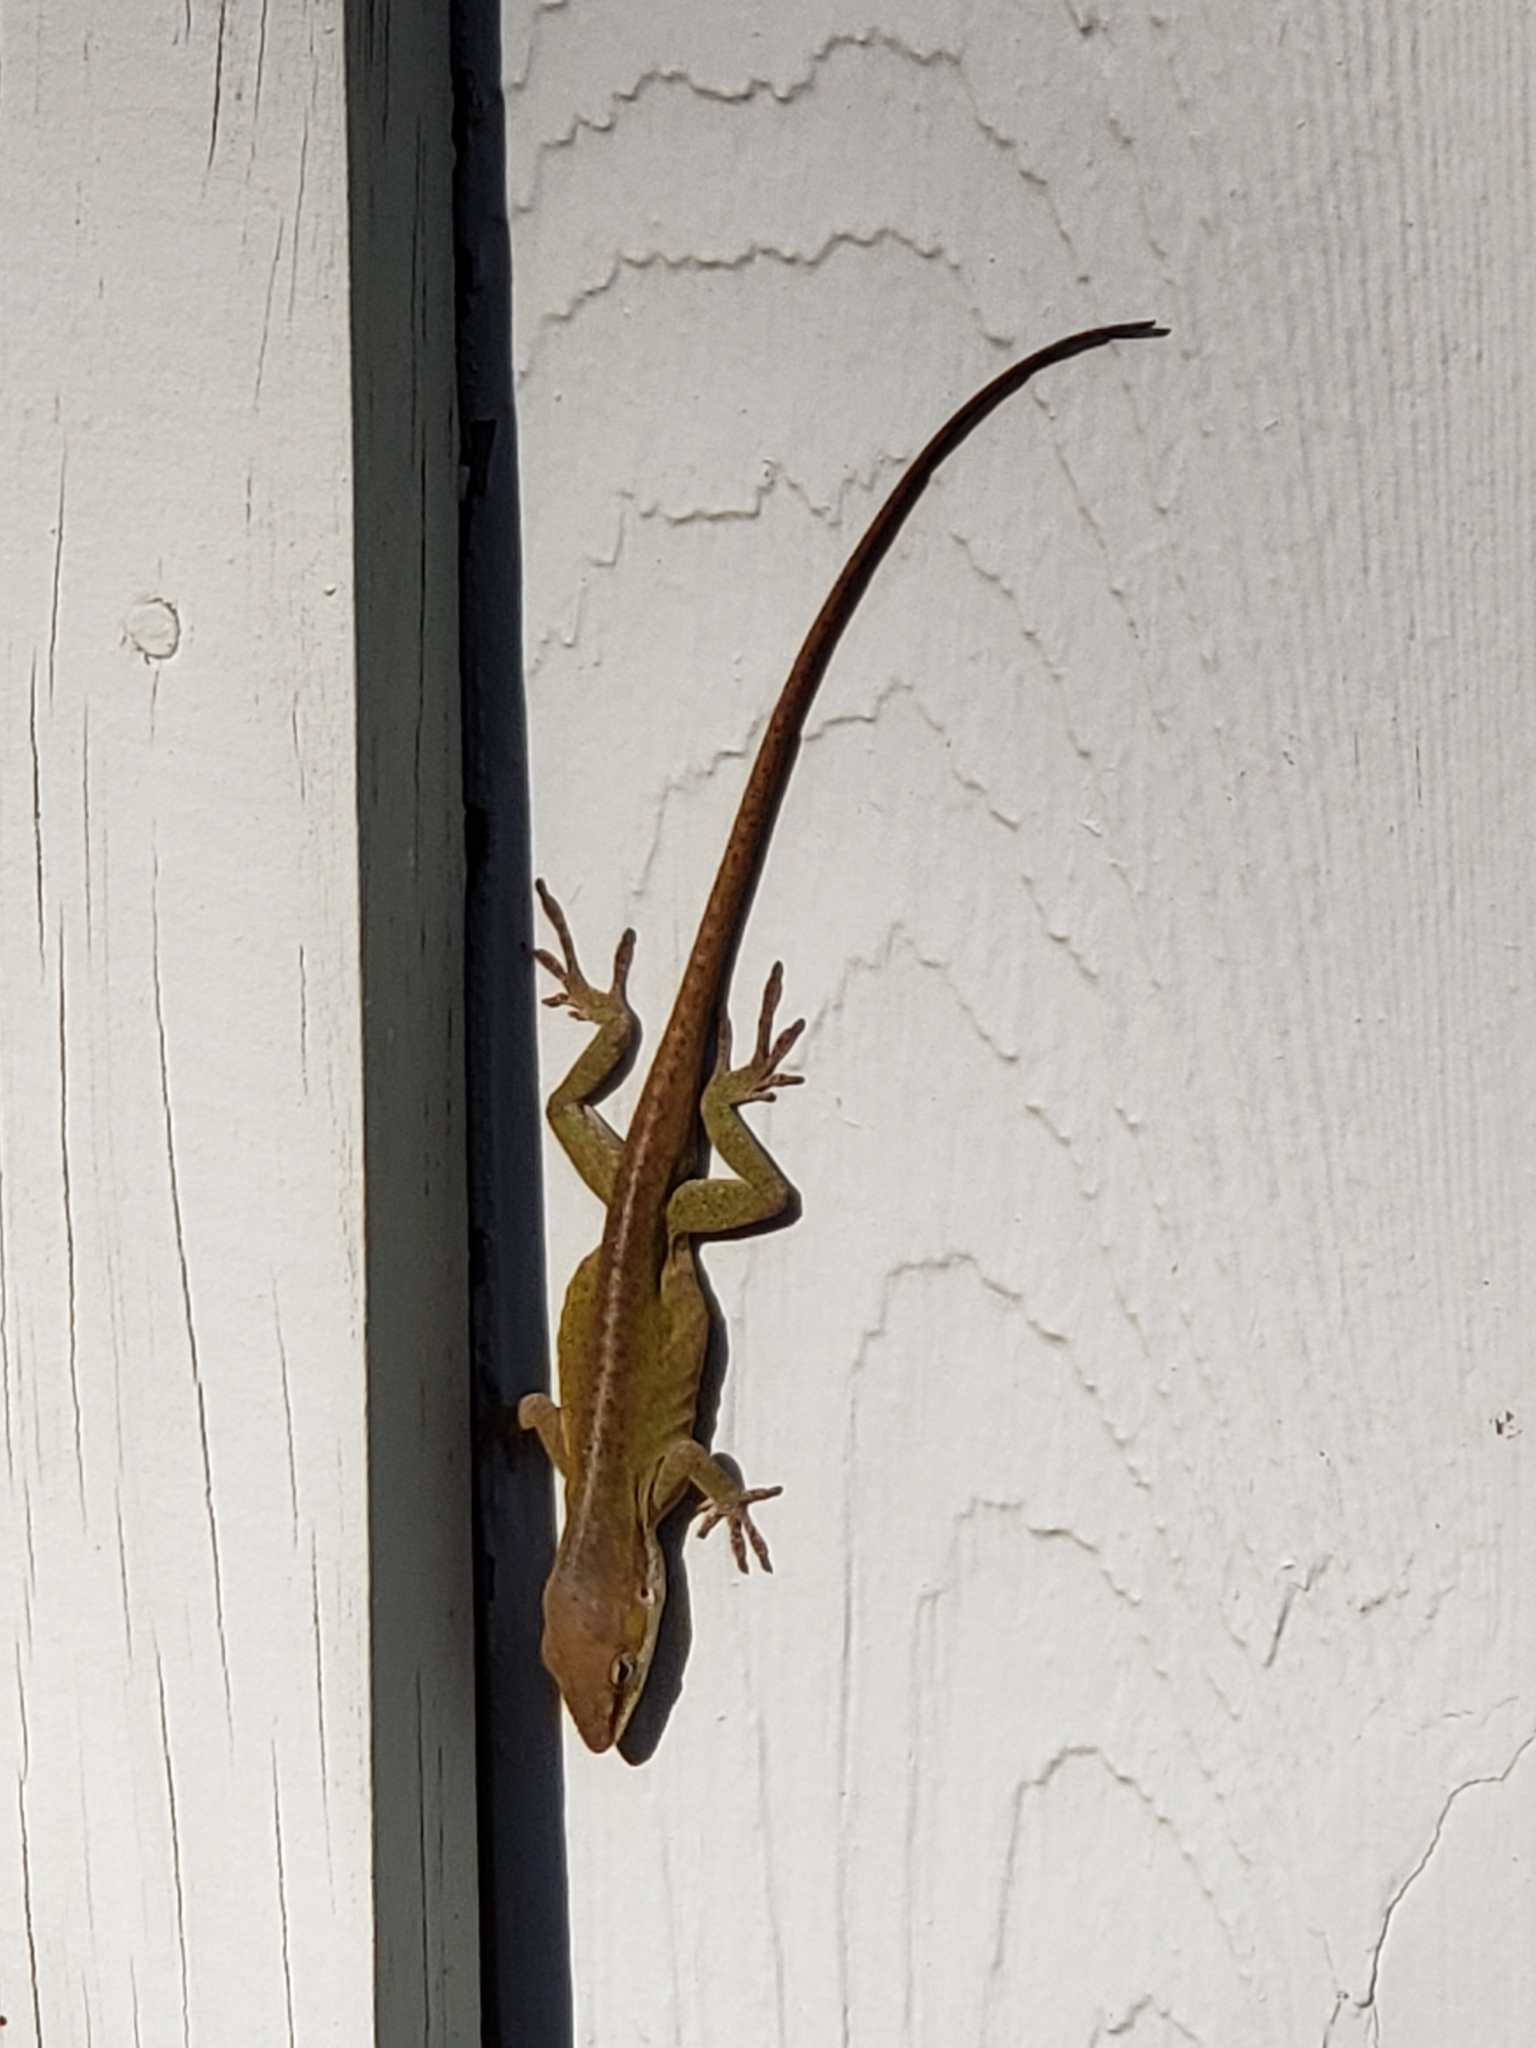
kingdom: Animalia
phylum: Chordata
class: Squamata
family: Dactyloidae
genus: Anolis
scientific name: Anolis carolinensis
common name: Green anole
